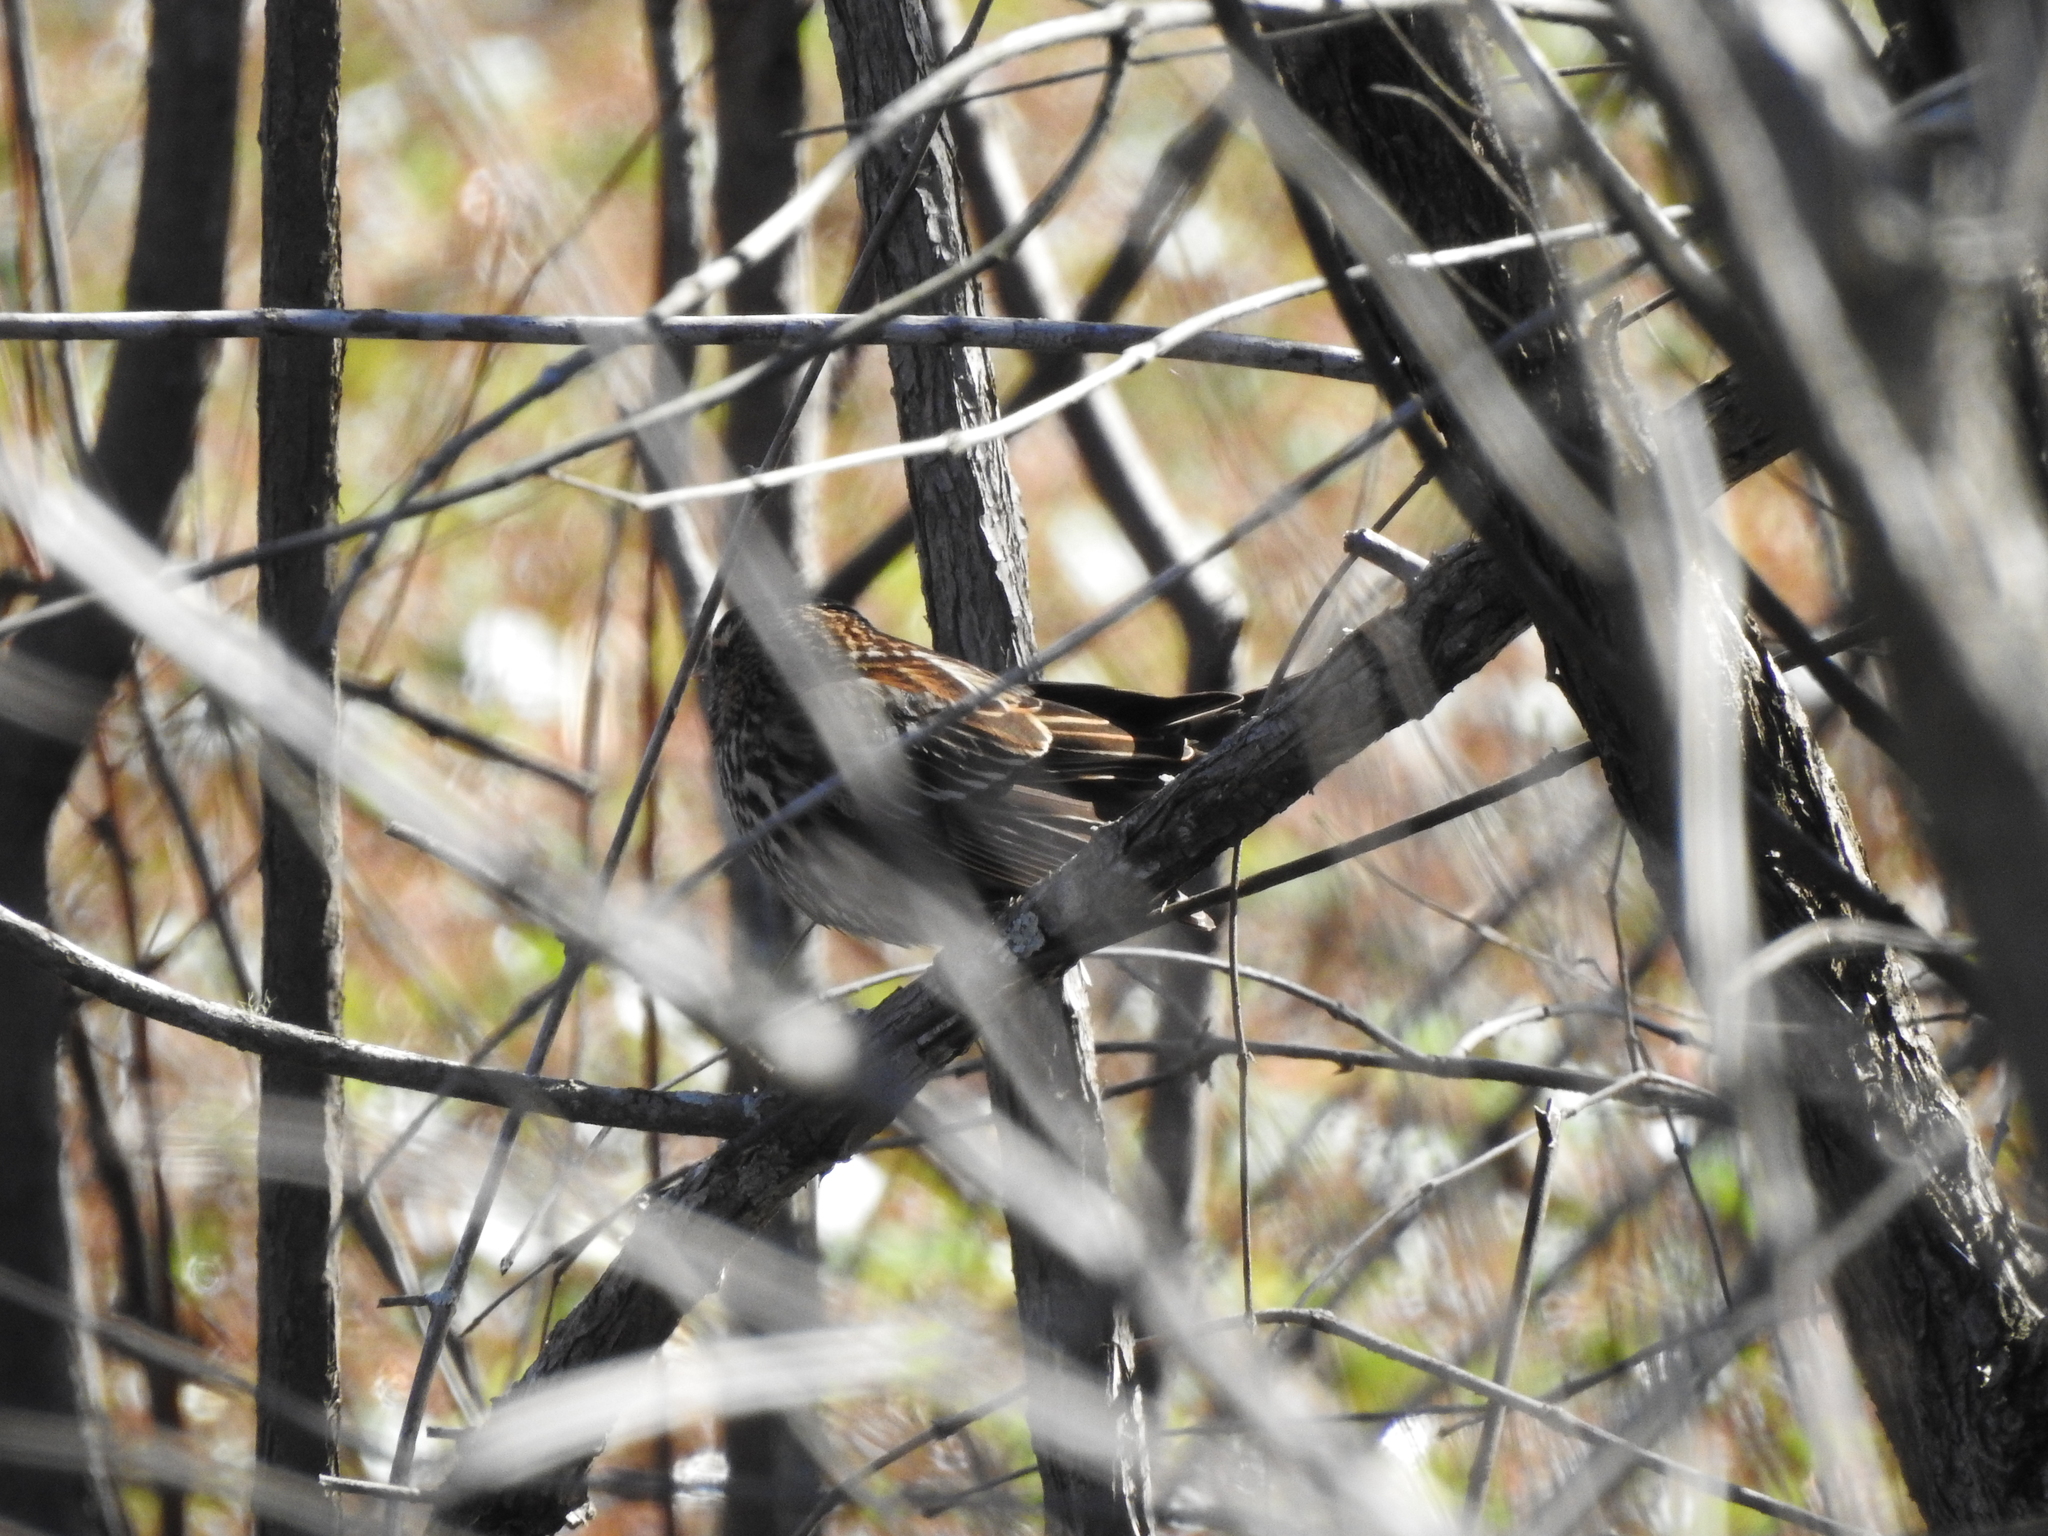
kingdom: Animalia
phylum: Chordata
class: Aves
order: Passeriformes
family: Icteridae
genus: Agelaius
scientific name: Agelaius phoeniceus
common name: Red-winged blackbird
